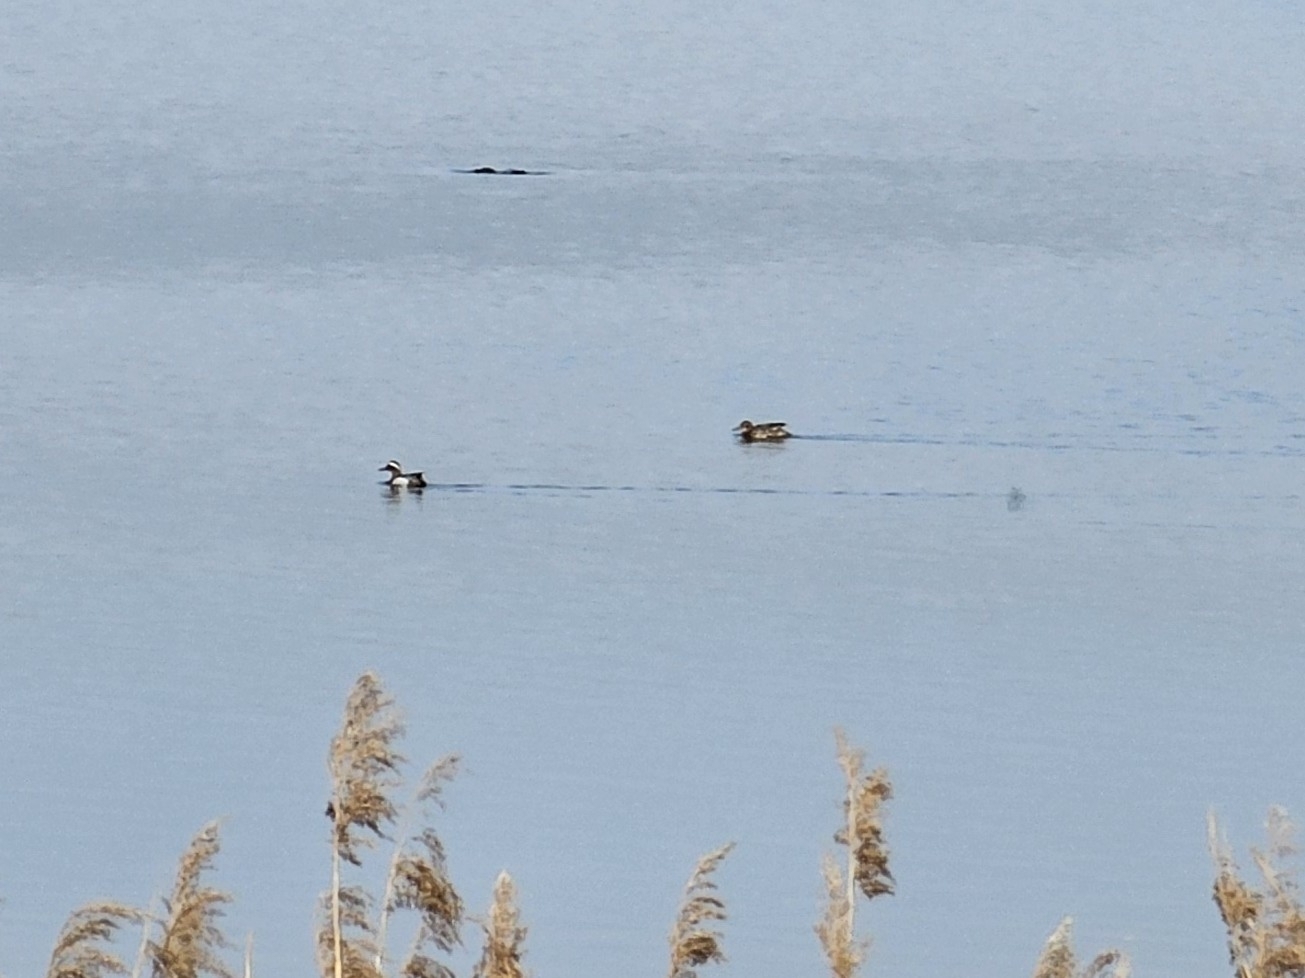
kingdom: Animalia
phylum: Chordata
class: Aves
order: Anseriformes
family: Anatidae
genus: Spatula
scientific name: Spatula querquedula
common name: Garganey
